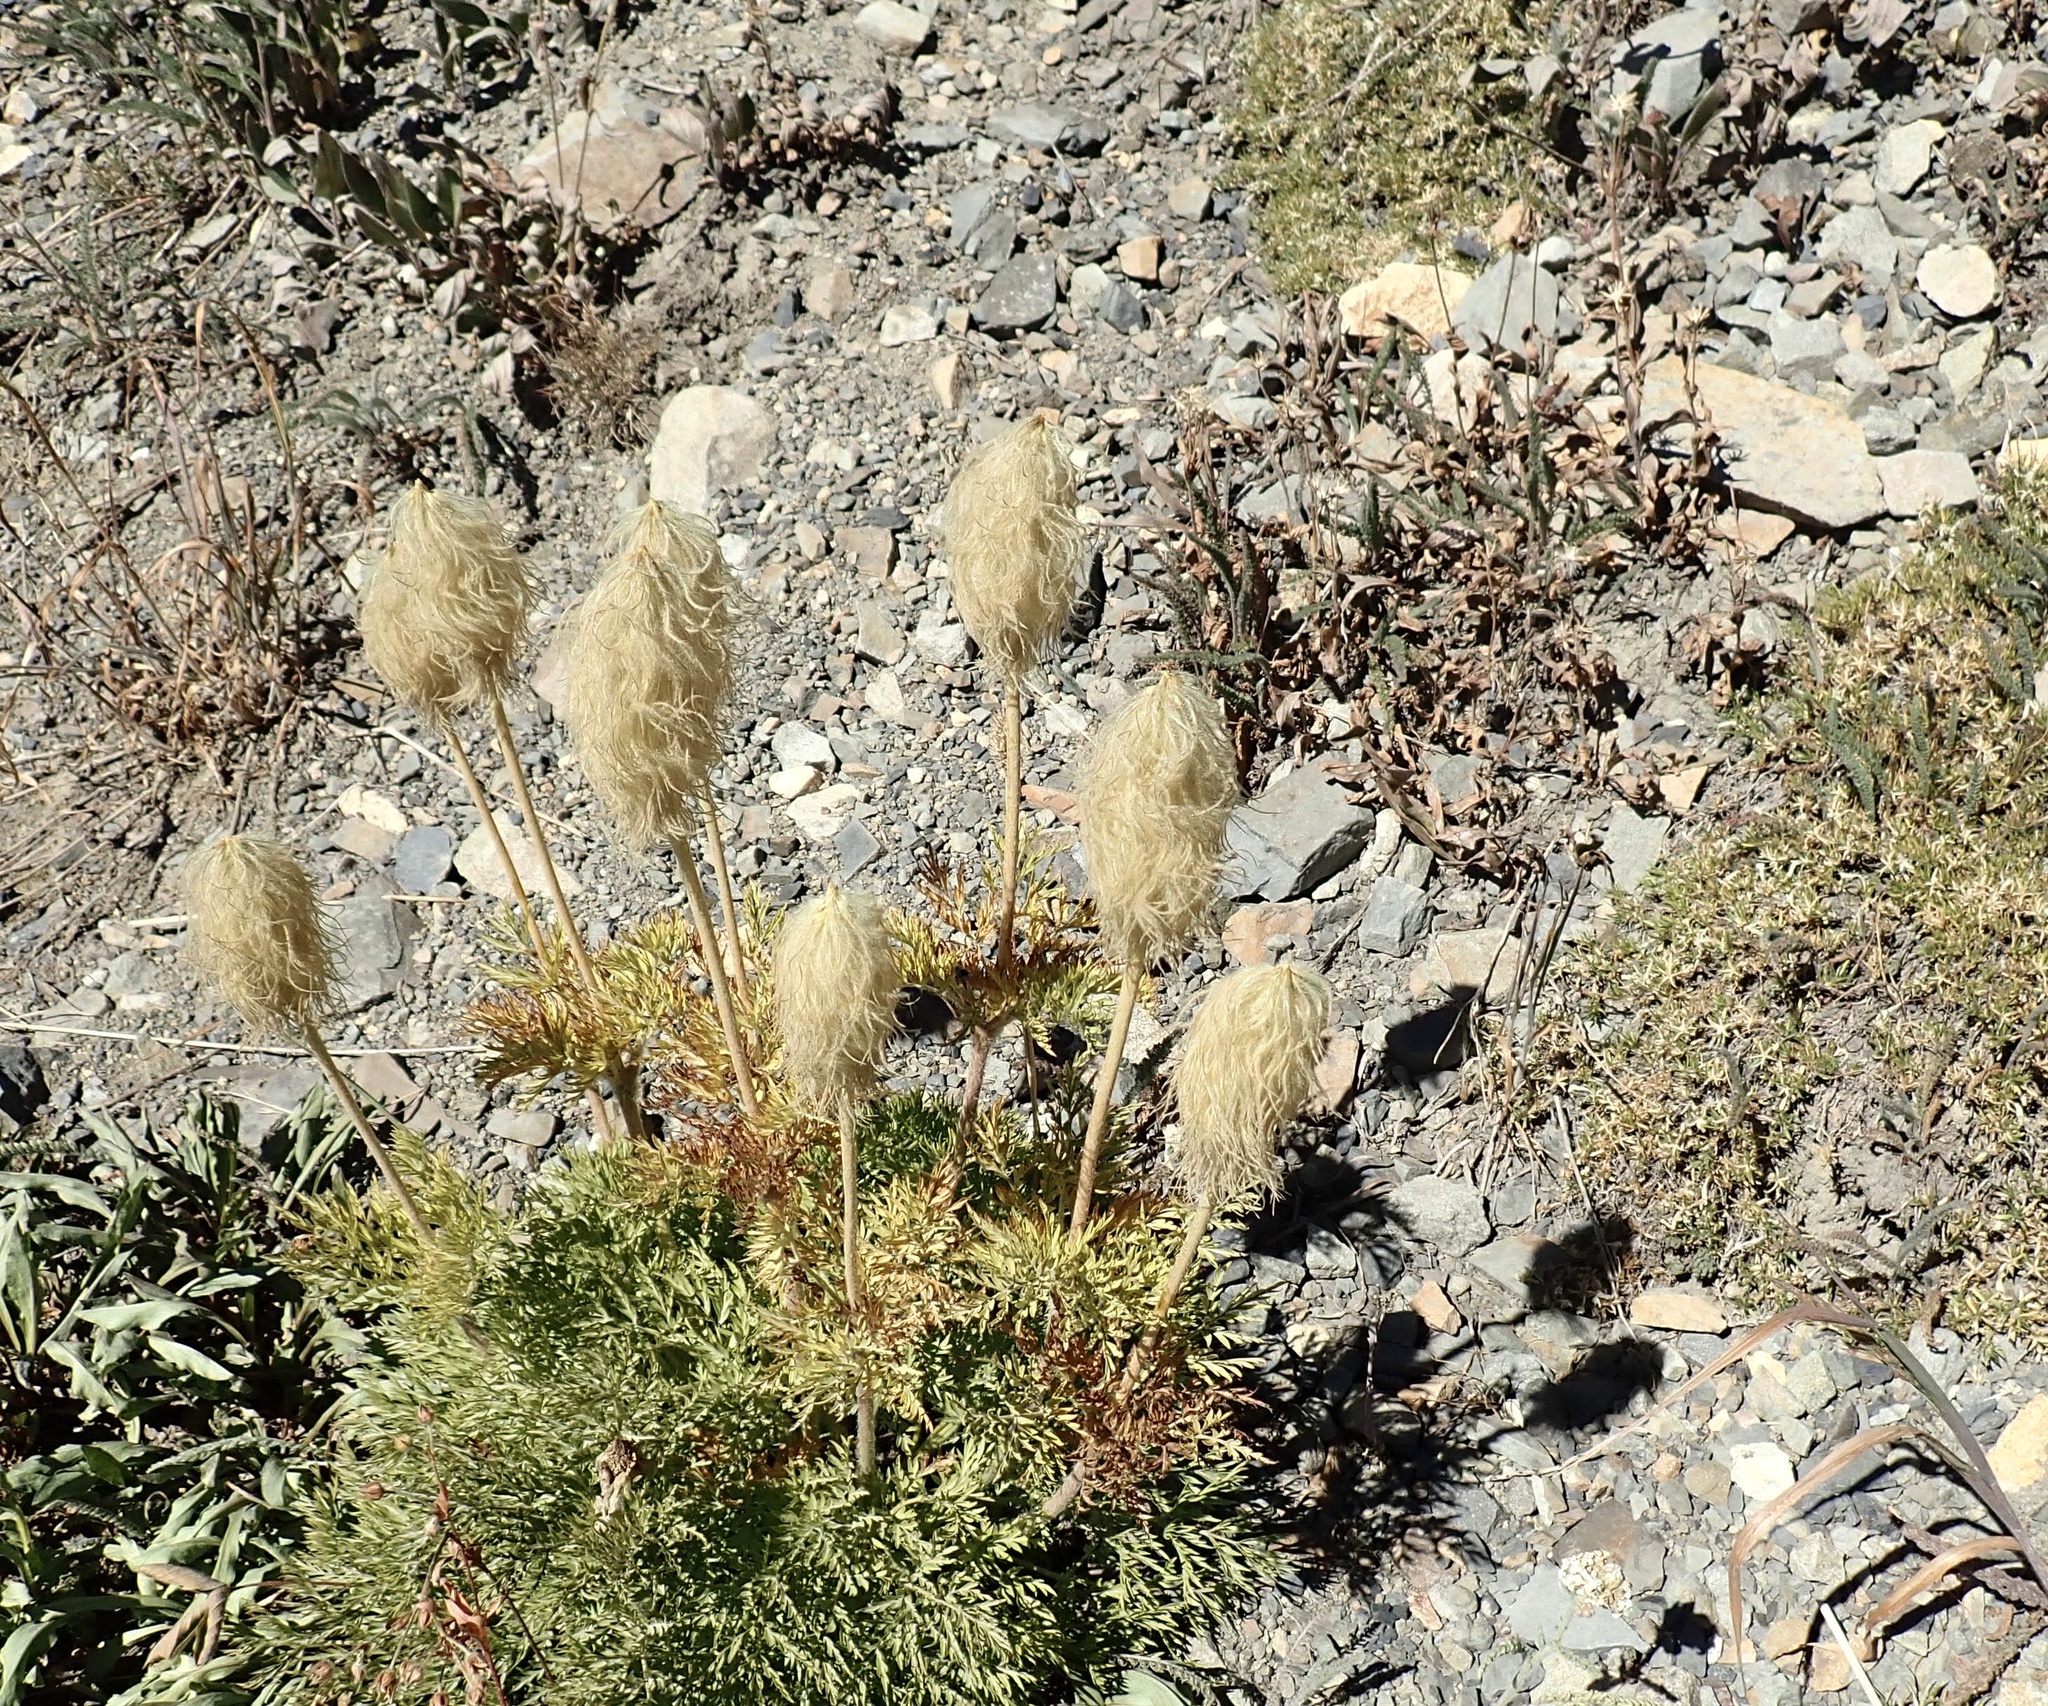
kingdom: Plantae
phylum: Tracheophyta
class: Magnoliopsida
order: Ranunculales
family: Ranunculaceae
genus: Pulsatilla
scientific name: Pulsatilla occidentalis
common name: Mountain pasqueflower
